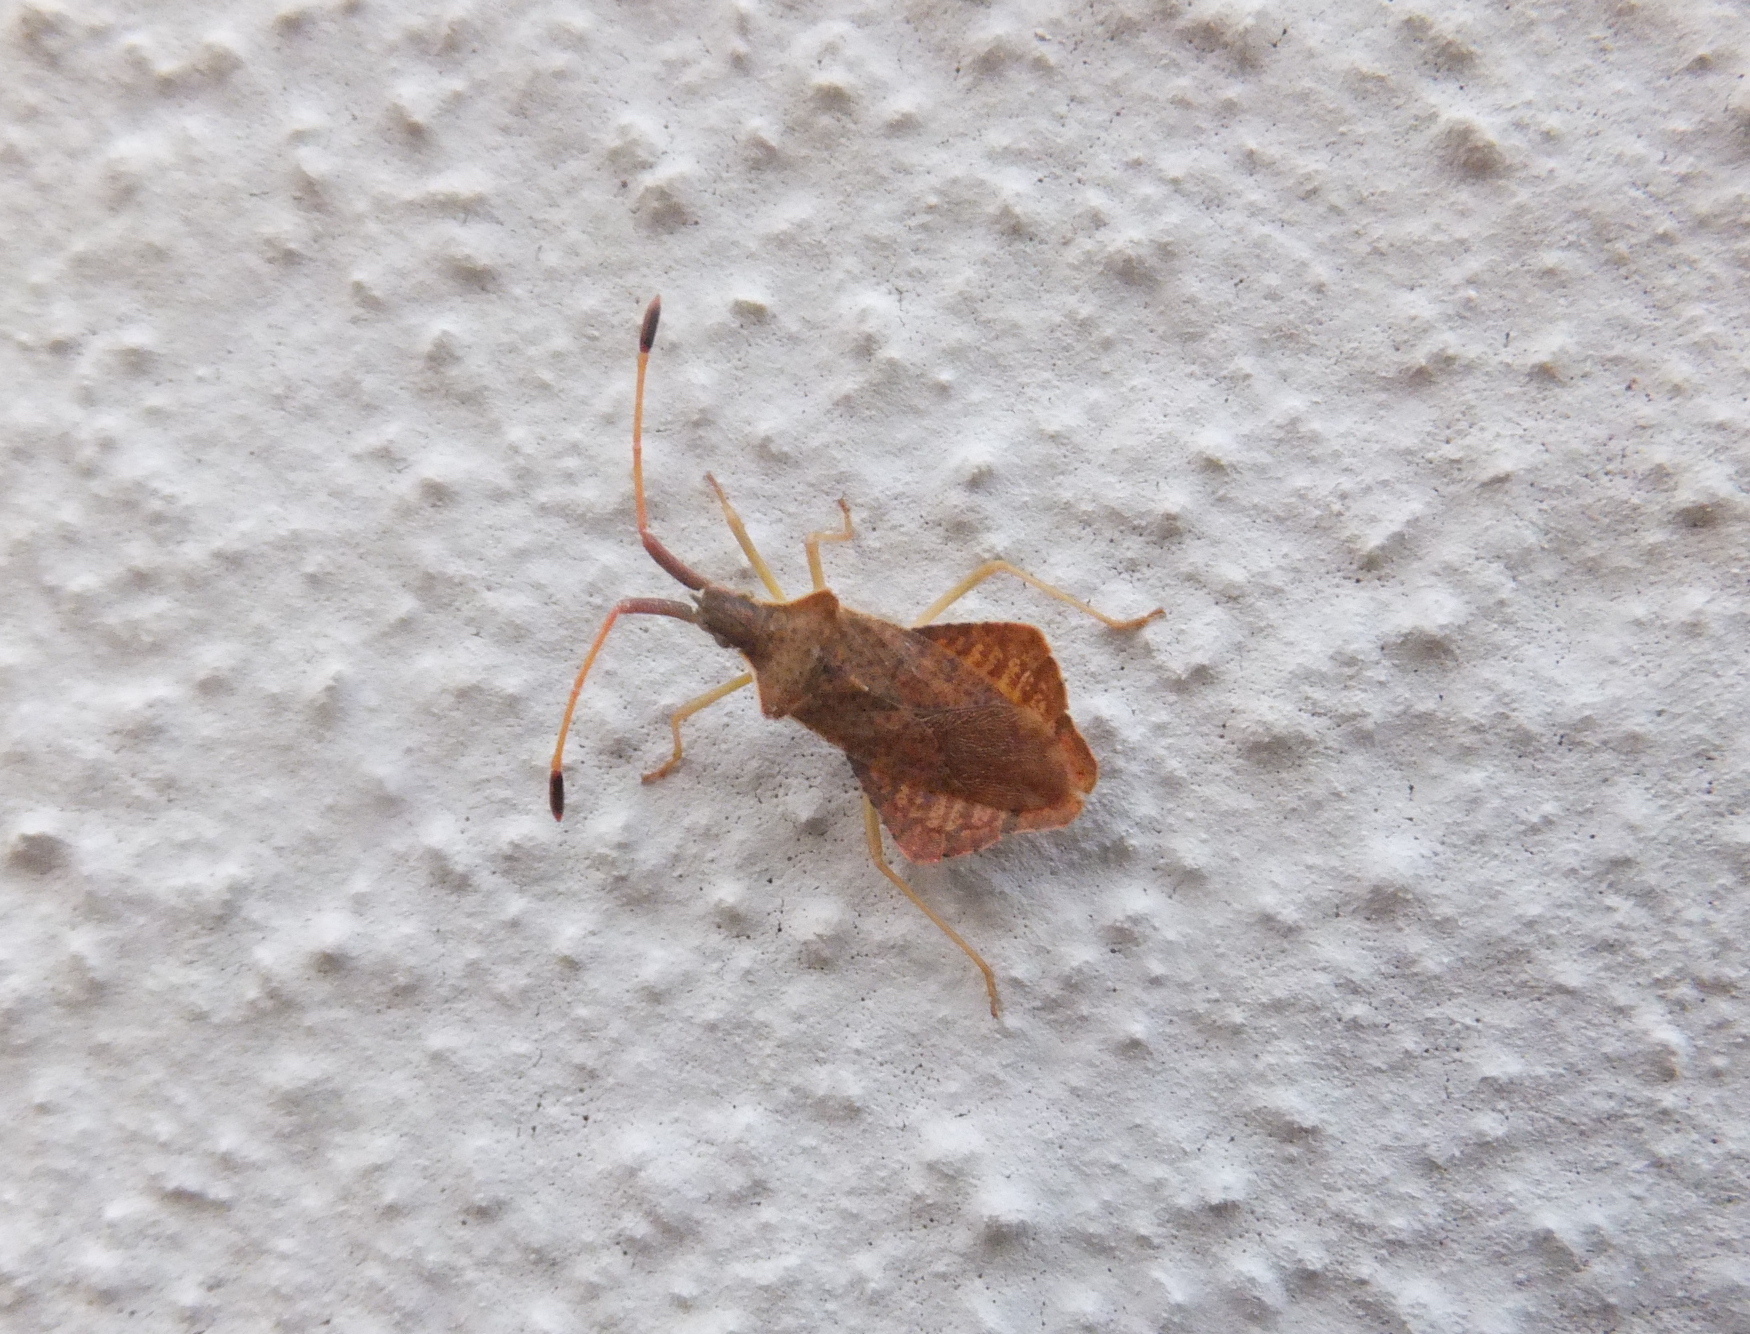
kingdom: Animalia
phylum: Arthropoda
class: Insecta
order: Hemiptera
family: Coreidae
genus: Syromastus
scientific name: Syromastus rhombeus
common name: Rhombic leatherbug
